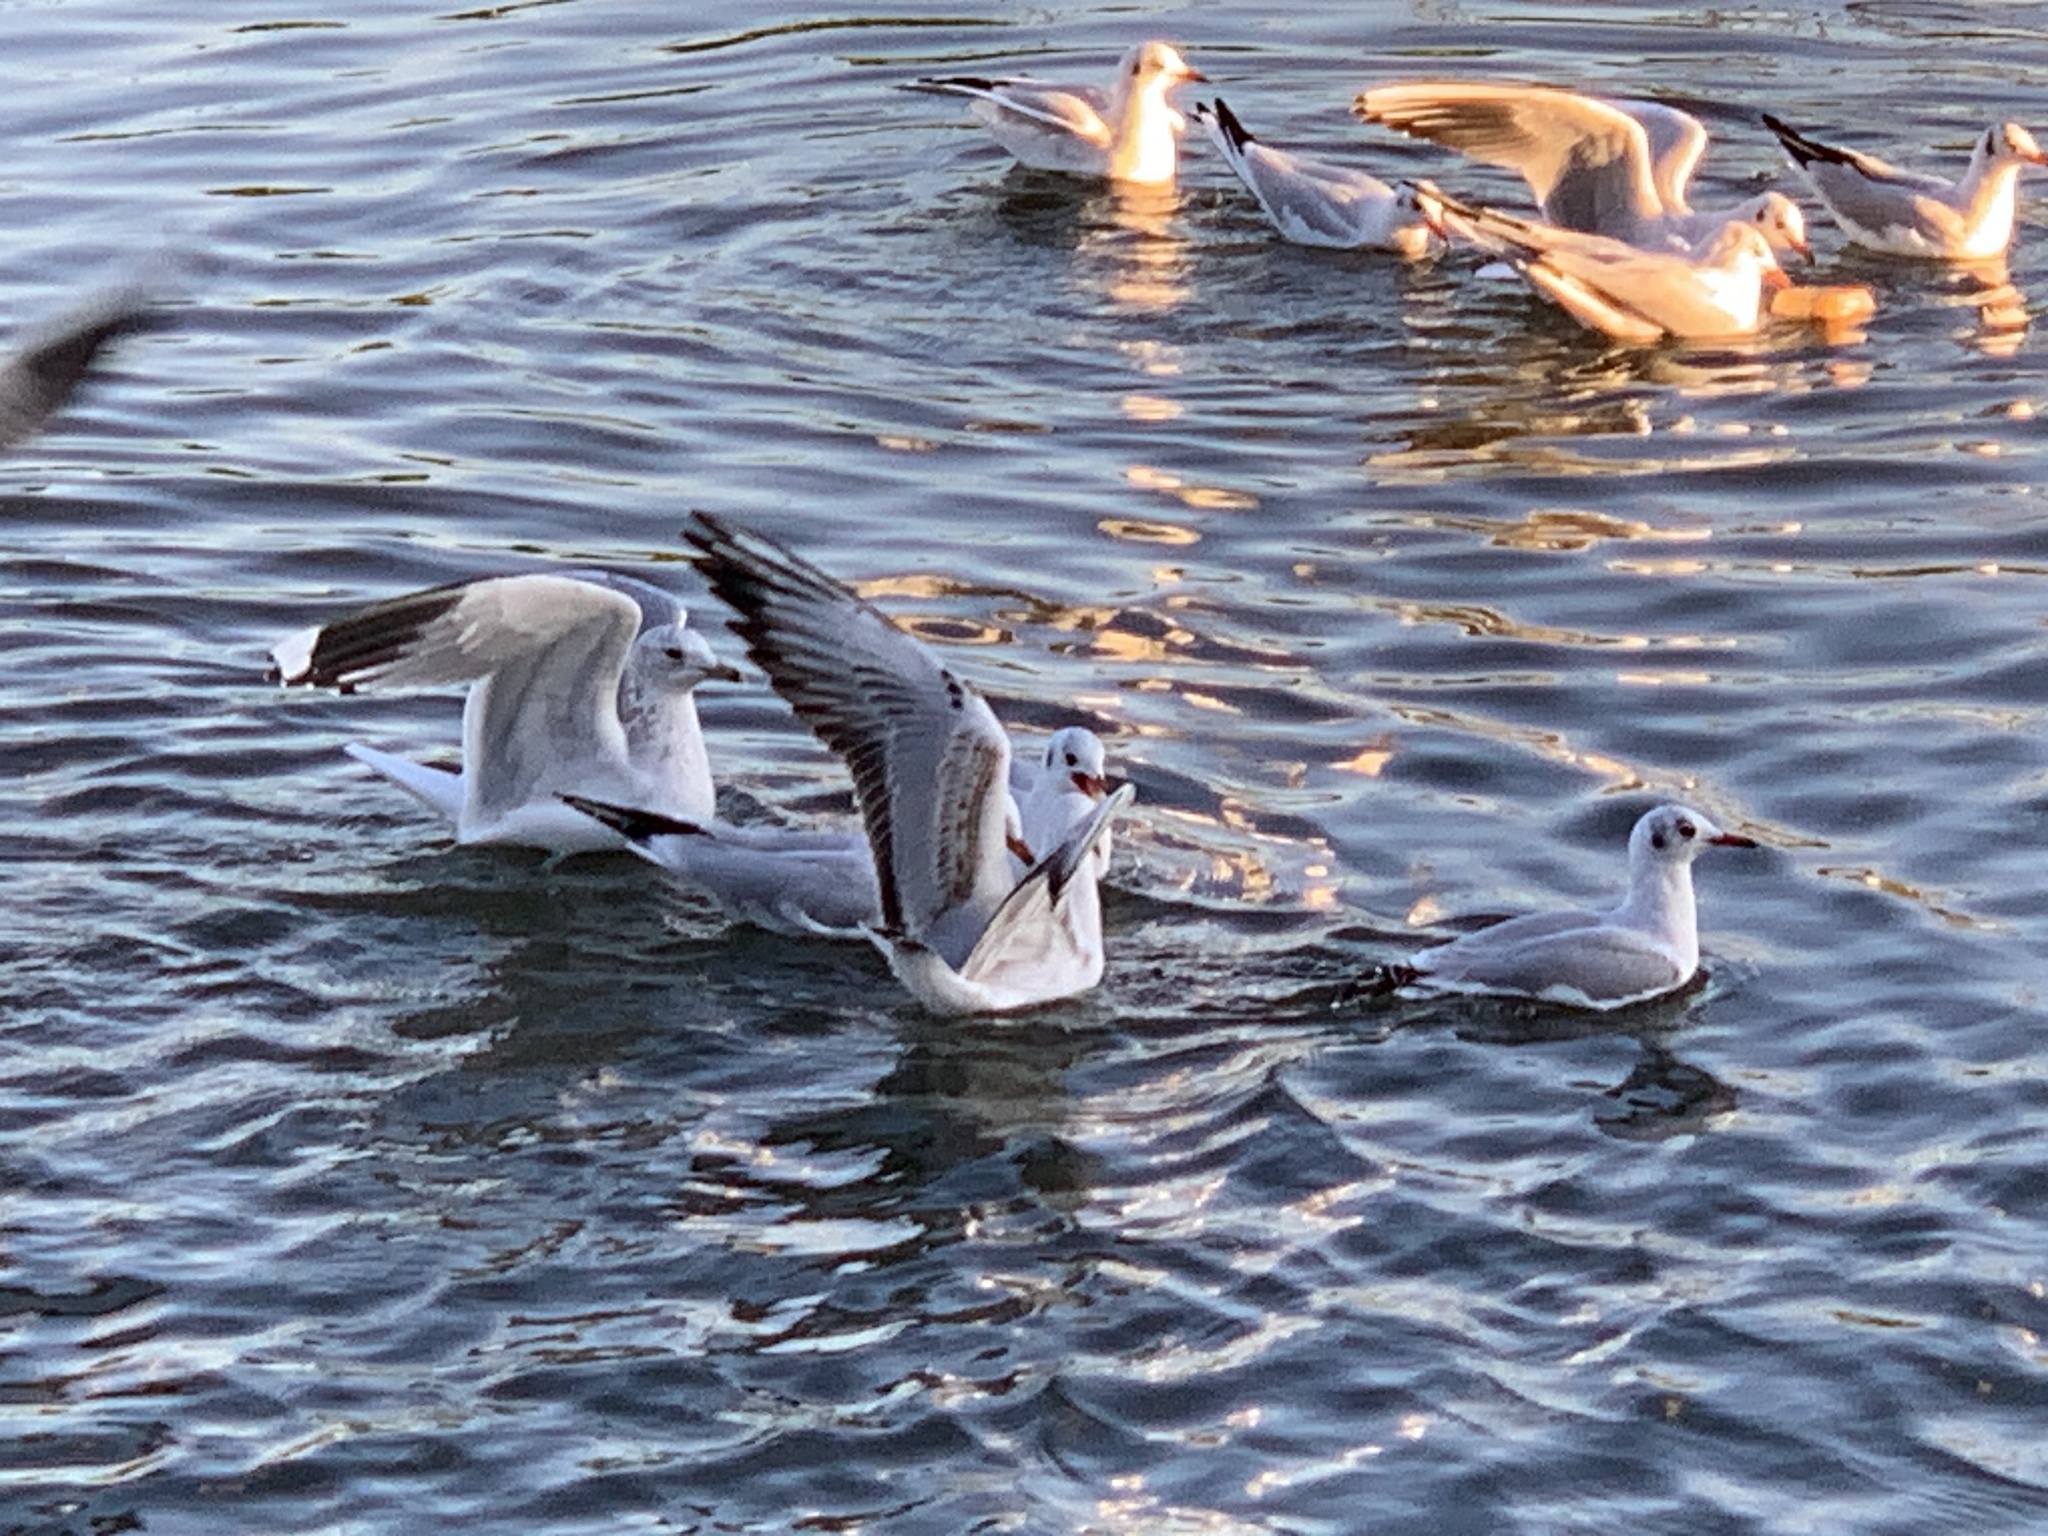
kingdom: Animalia
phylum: Chordata
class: Aves
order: Charadriiformes
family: Laridae
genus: Larus
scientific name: Larus canus
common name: Mew gull
